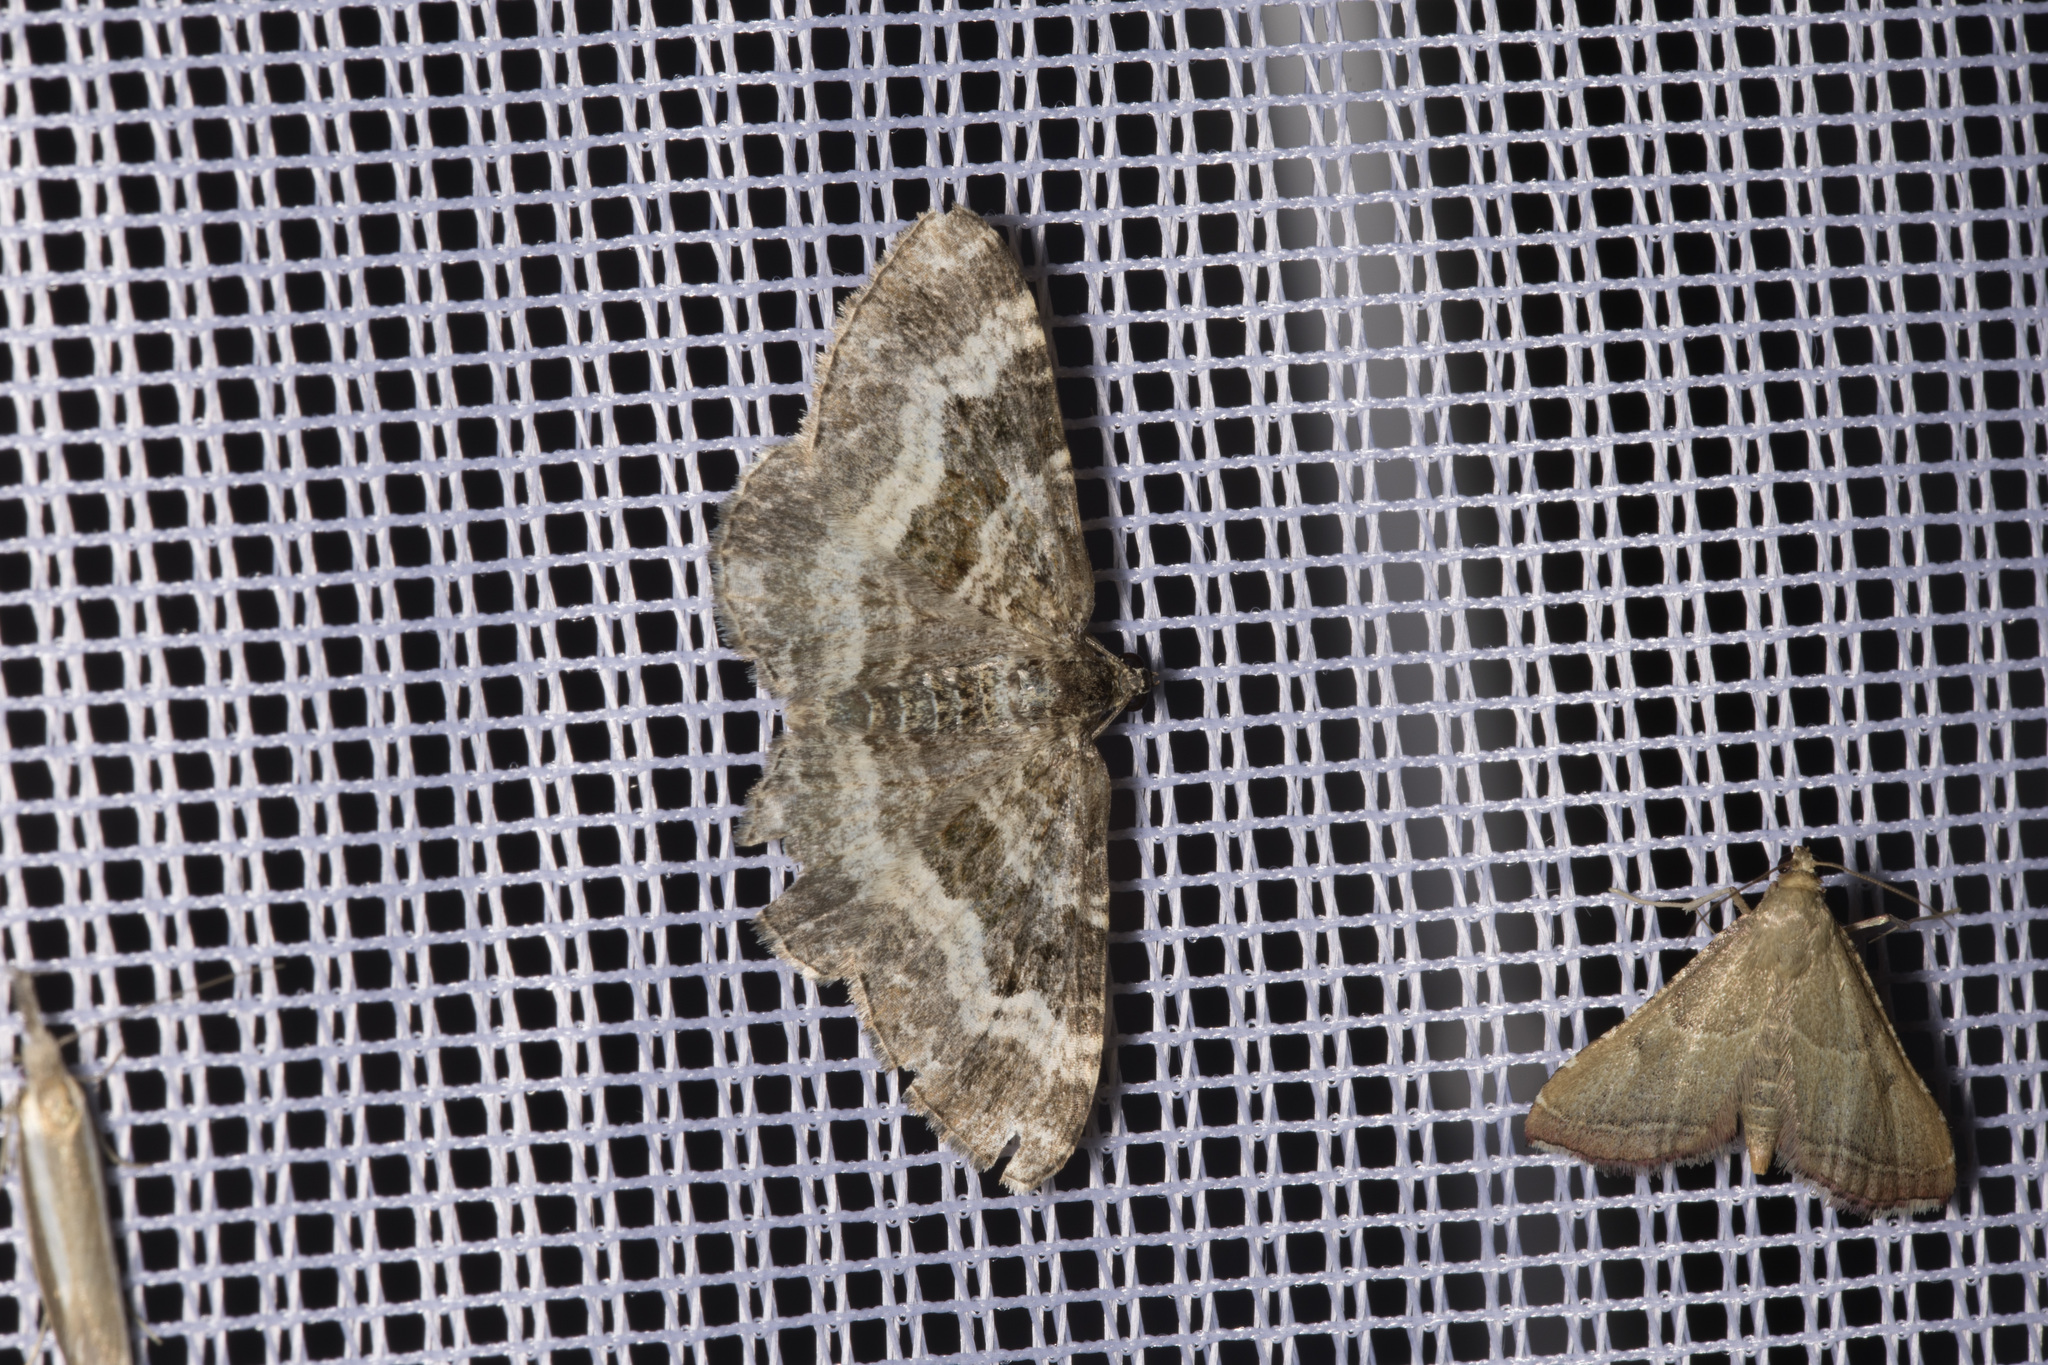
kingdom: Animalia
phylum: Arthropoda
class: Insecta
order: Lepidoptera
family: Geometridae
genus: Epirrhoe
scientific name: Epirrhoe alternata
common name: Common carpet
